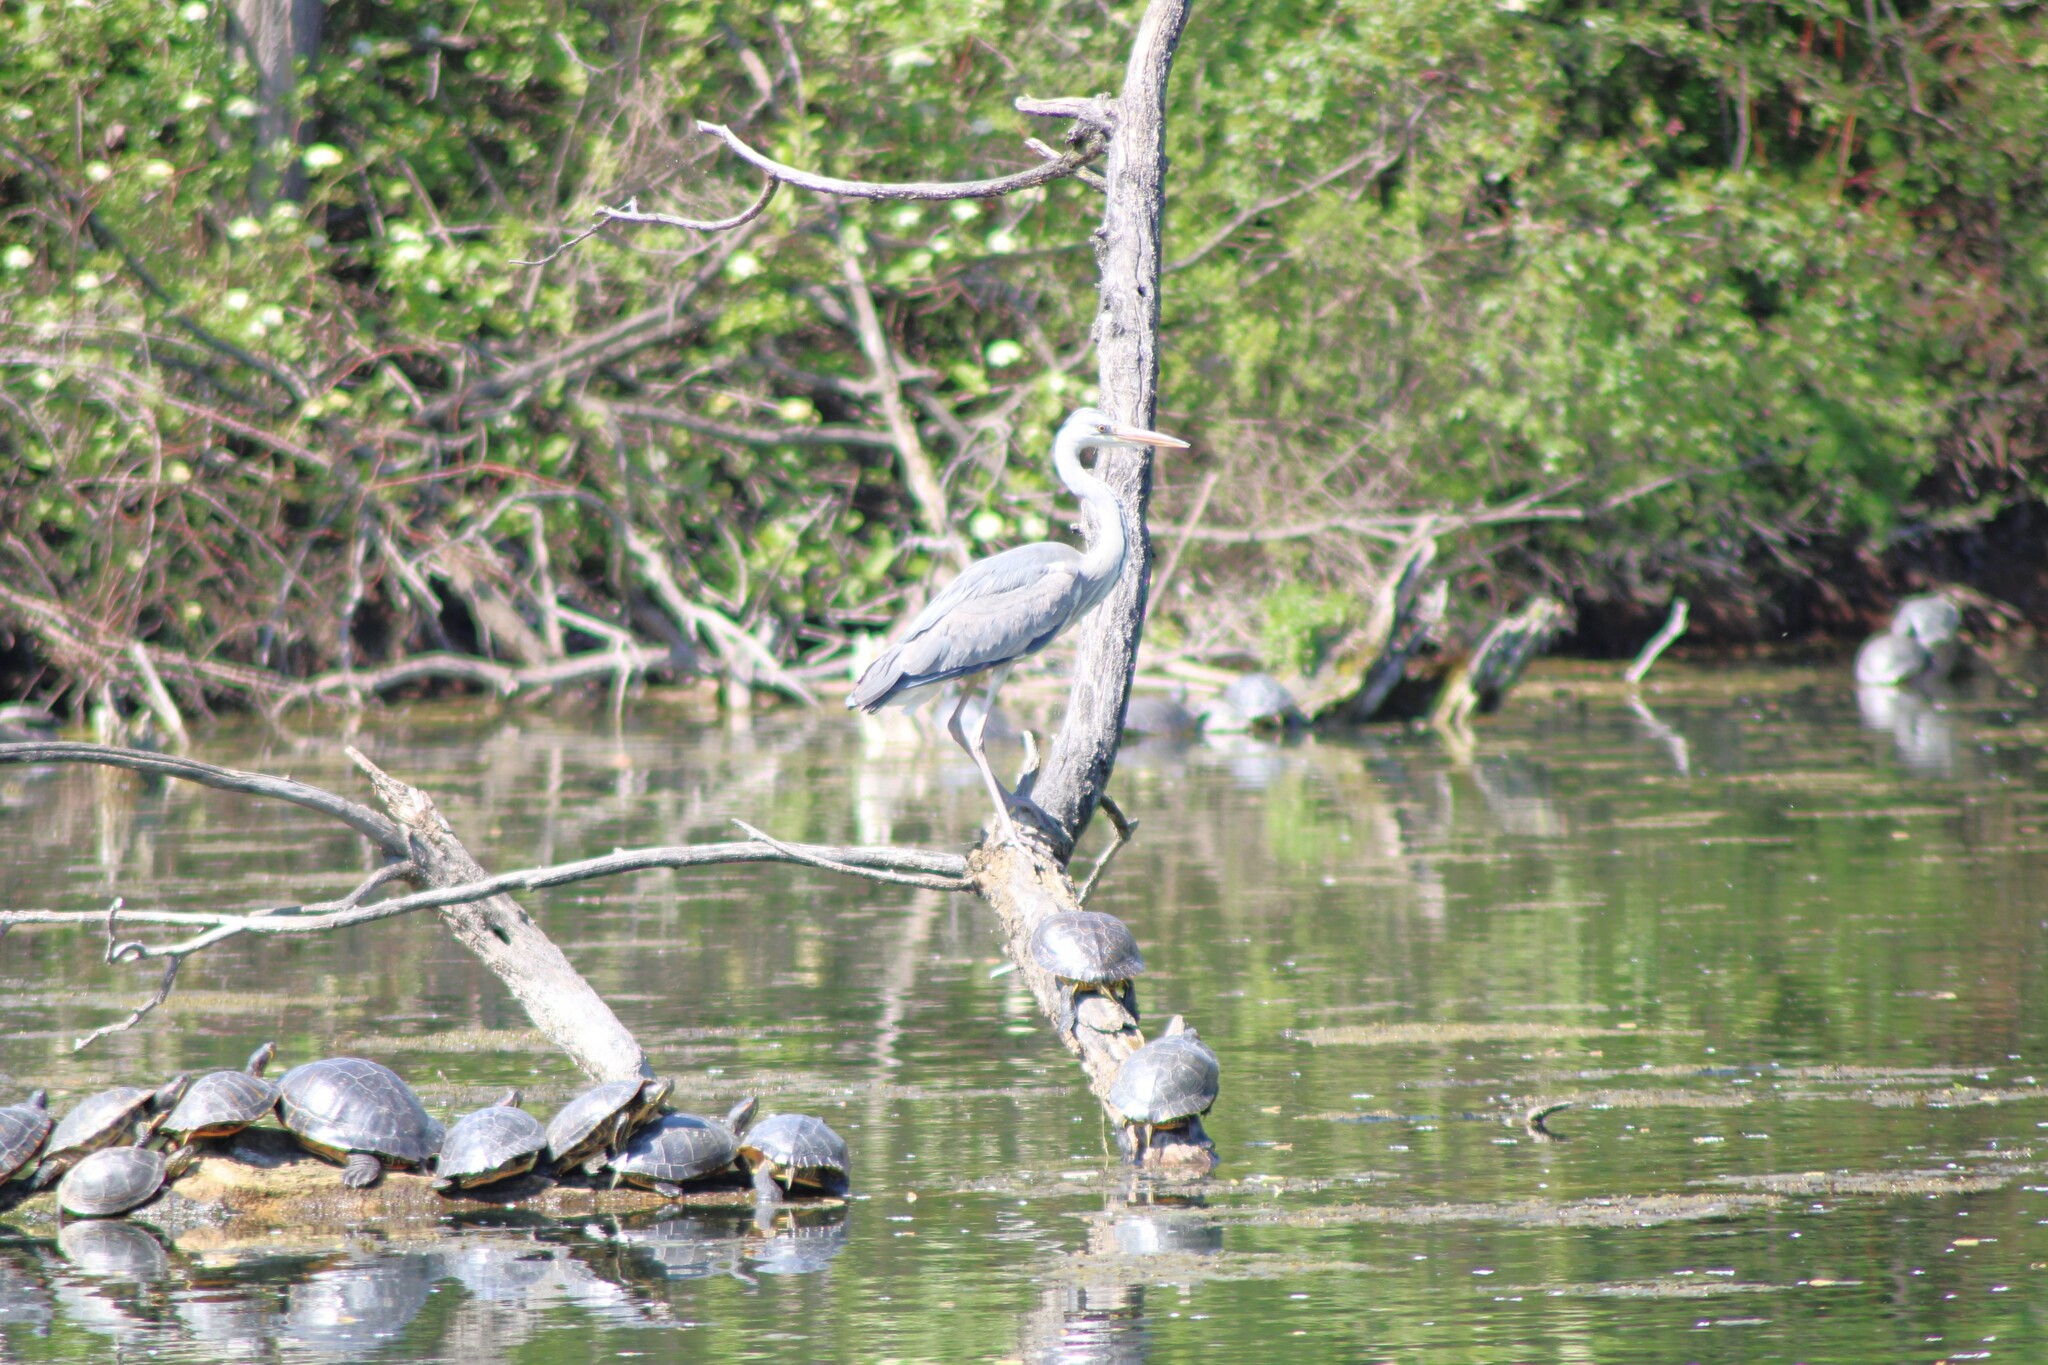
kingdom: Animalia
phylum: Chordata
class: Aves
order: Pelecaniformes
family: Ardeidae
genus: Ardea
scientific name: Ardea cinerea
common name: Grey heron
